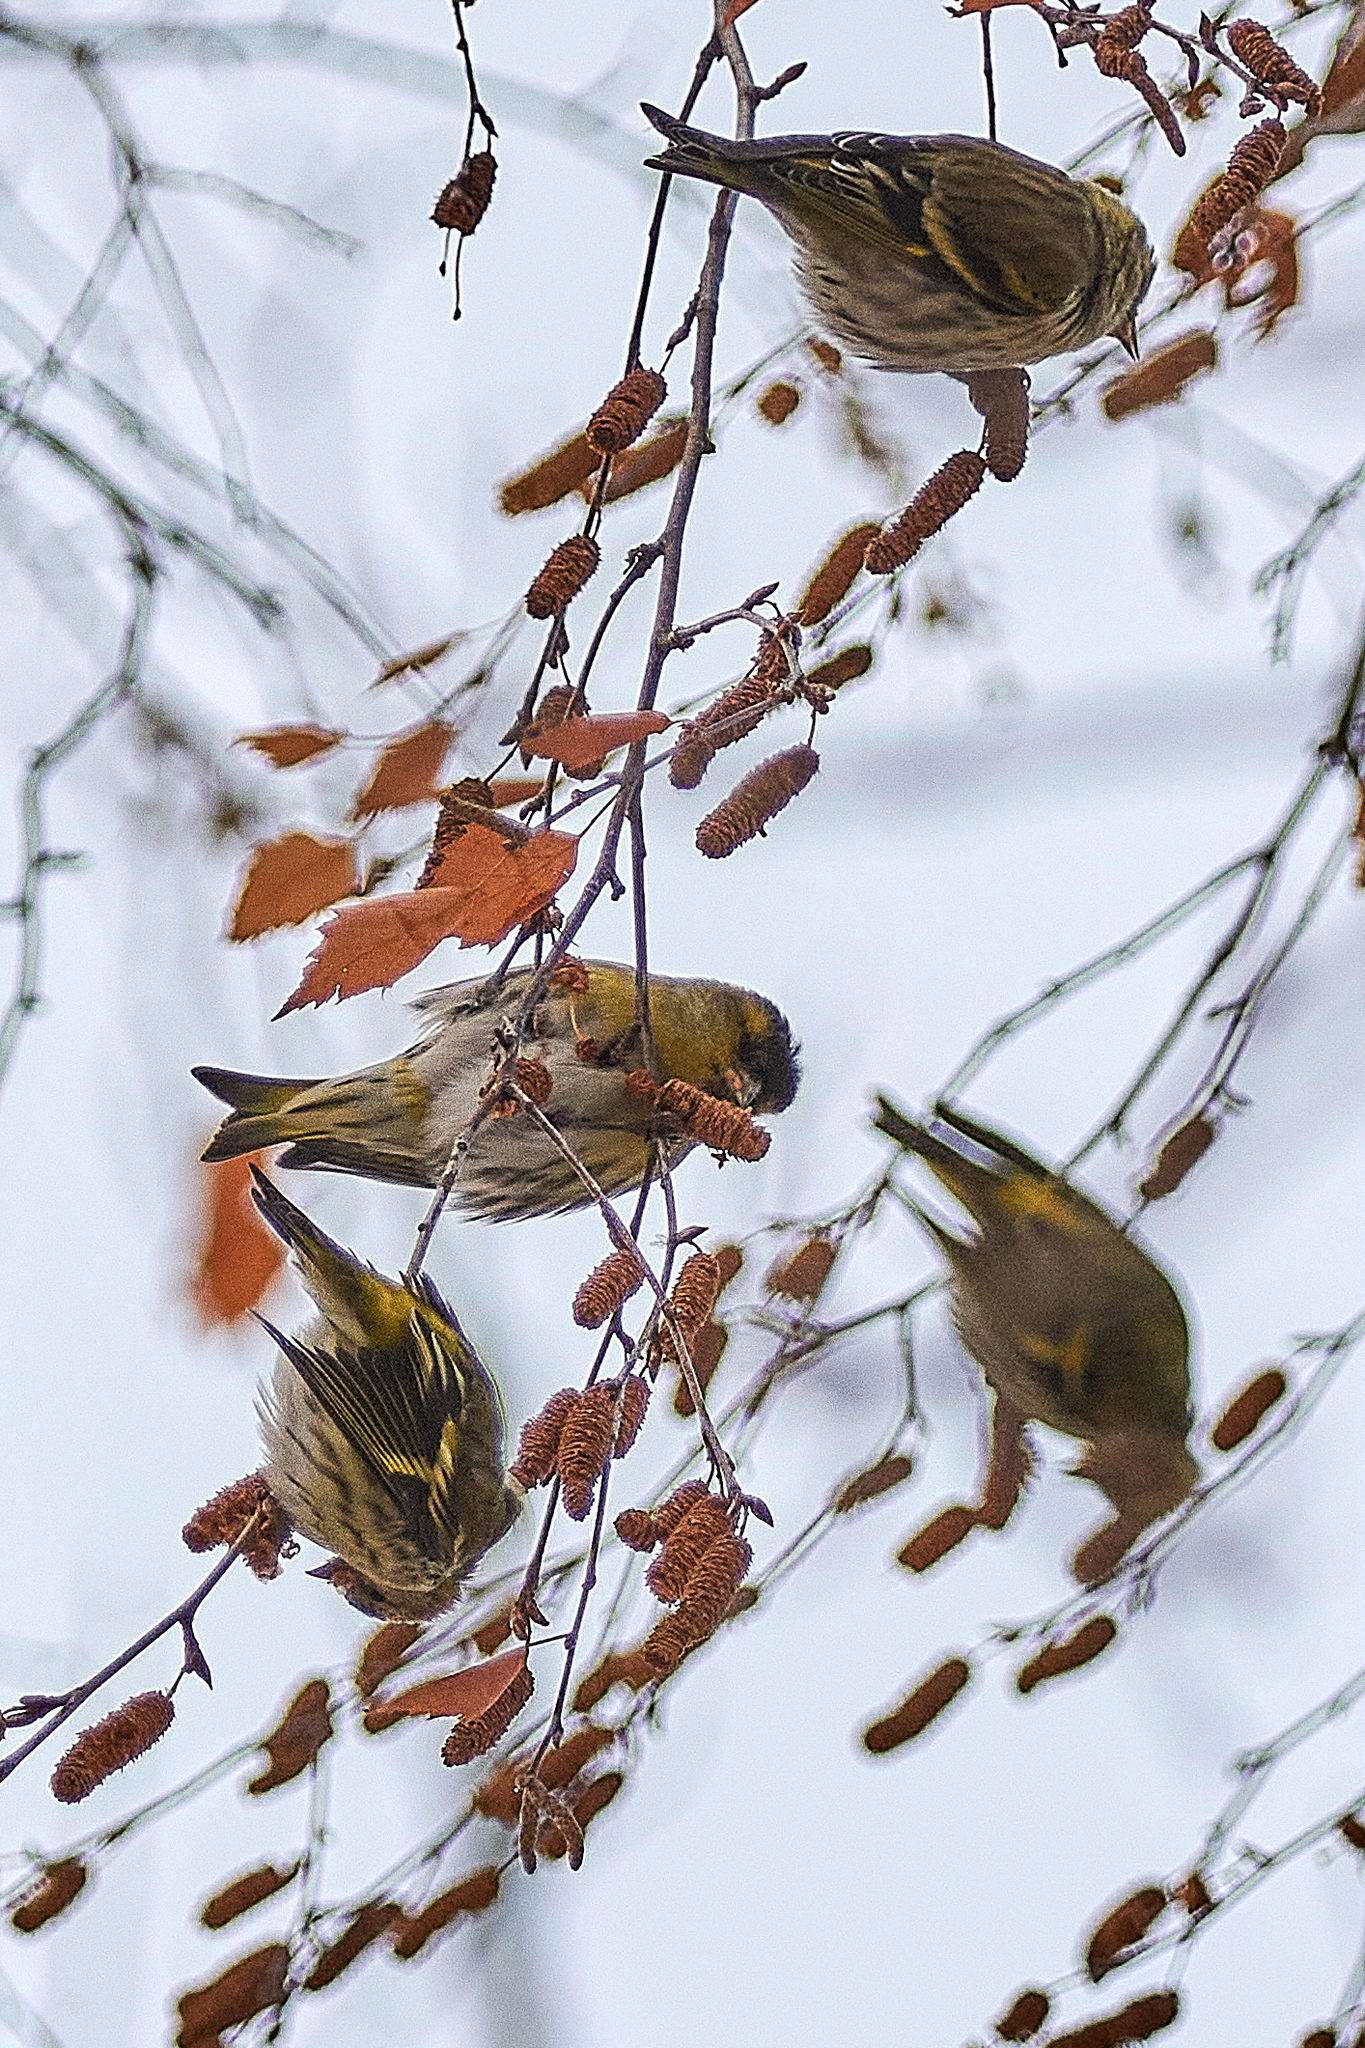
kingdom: Animalia
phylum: Chordata
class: Aves
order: Passeriformes
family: Fringillidae
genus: Spinus
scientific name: Spinus spinus
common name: Eurasian siskin
